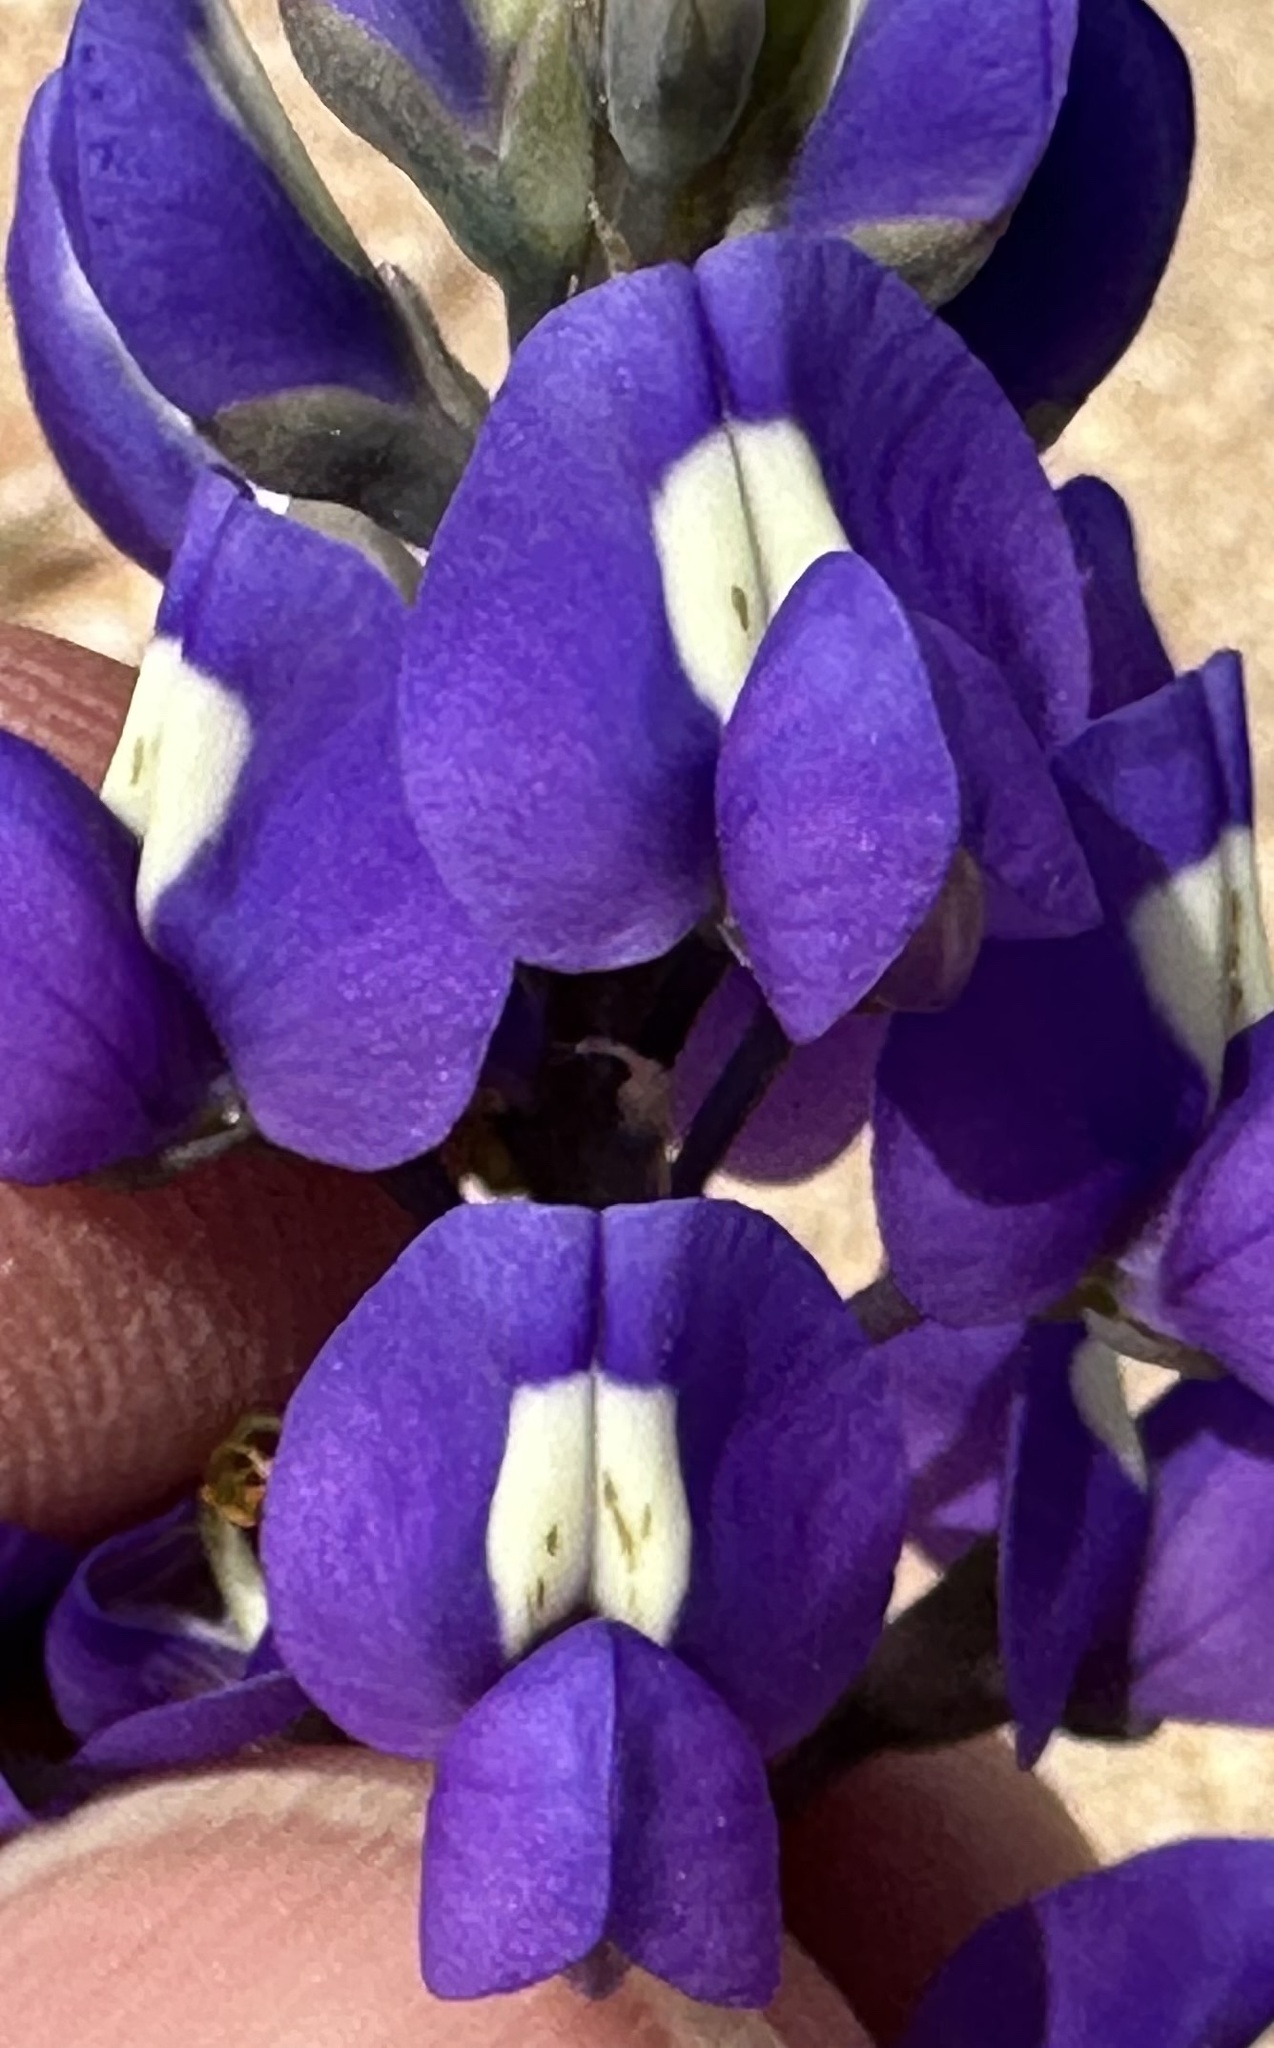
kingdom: Plantae
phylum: Tracheophyta
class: Magnoliopsida
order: Fabales
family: Fabaceae
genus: Lupinus
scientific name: Lupinus
